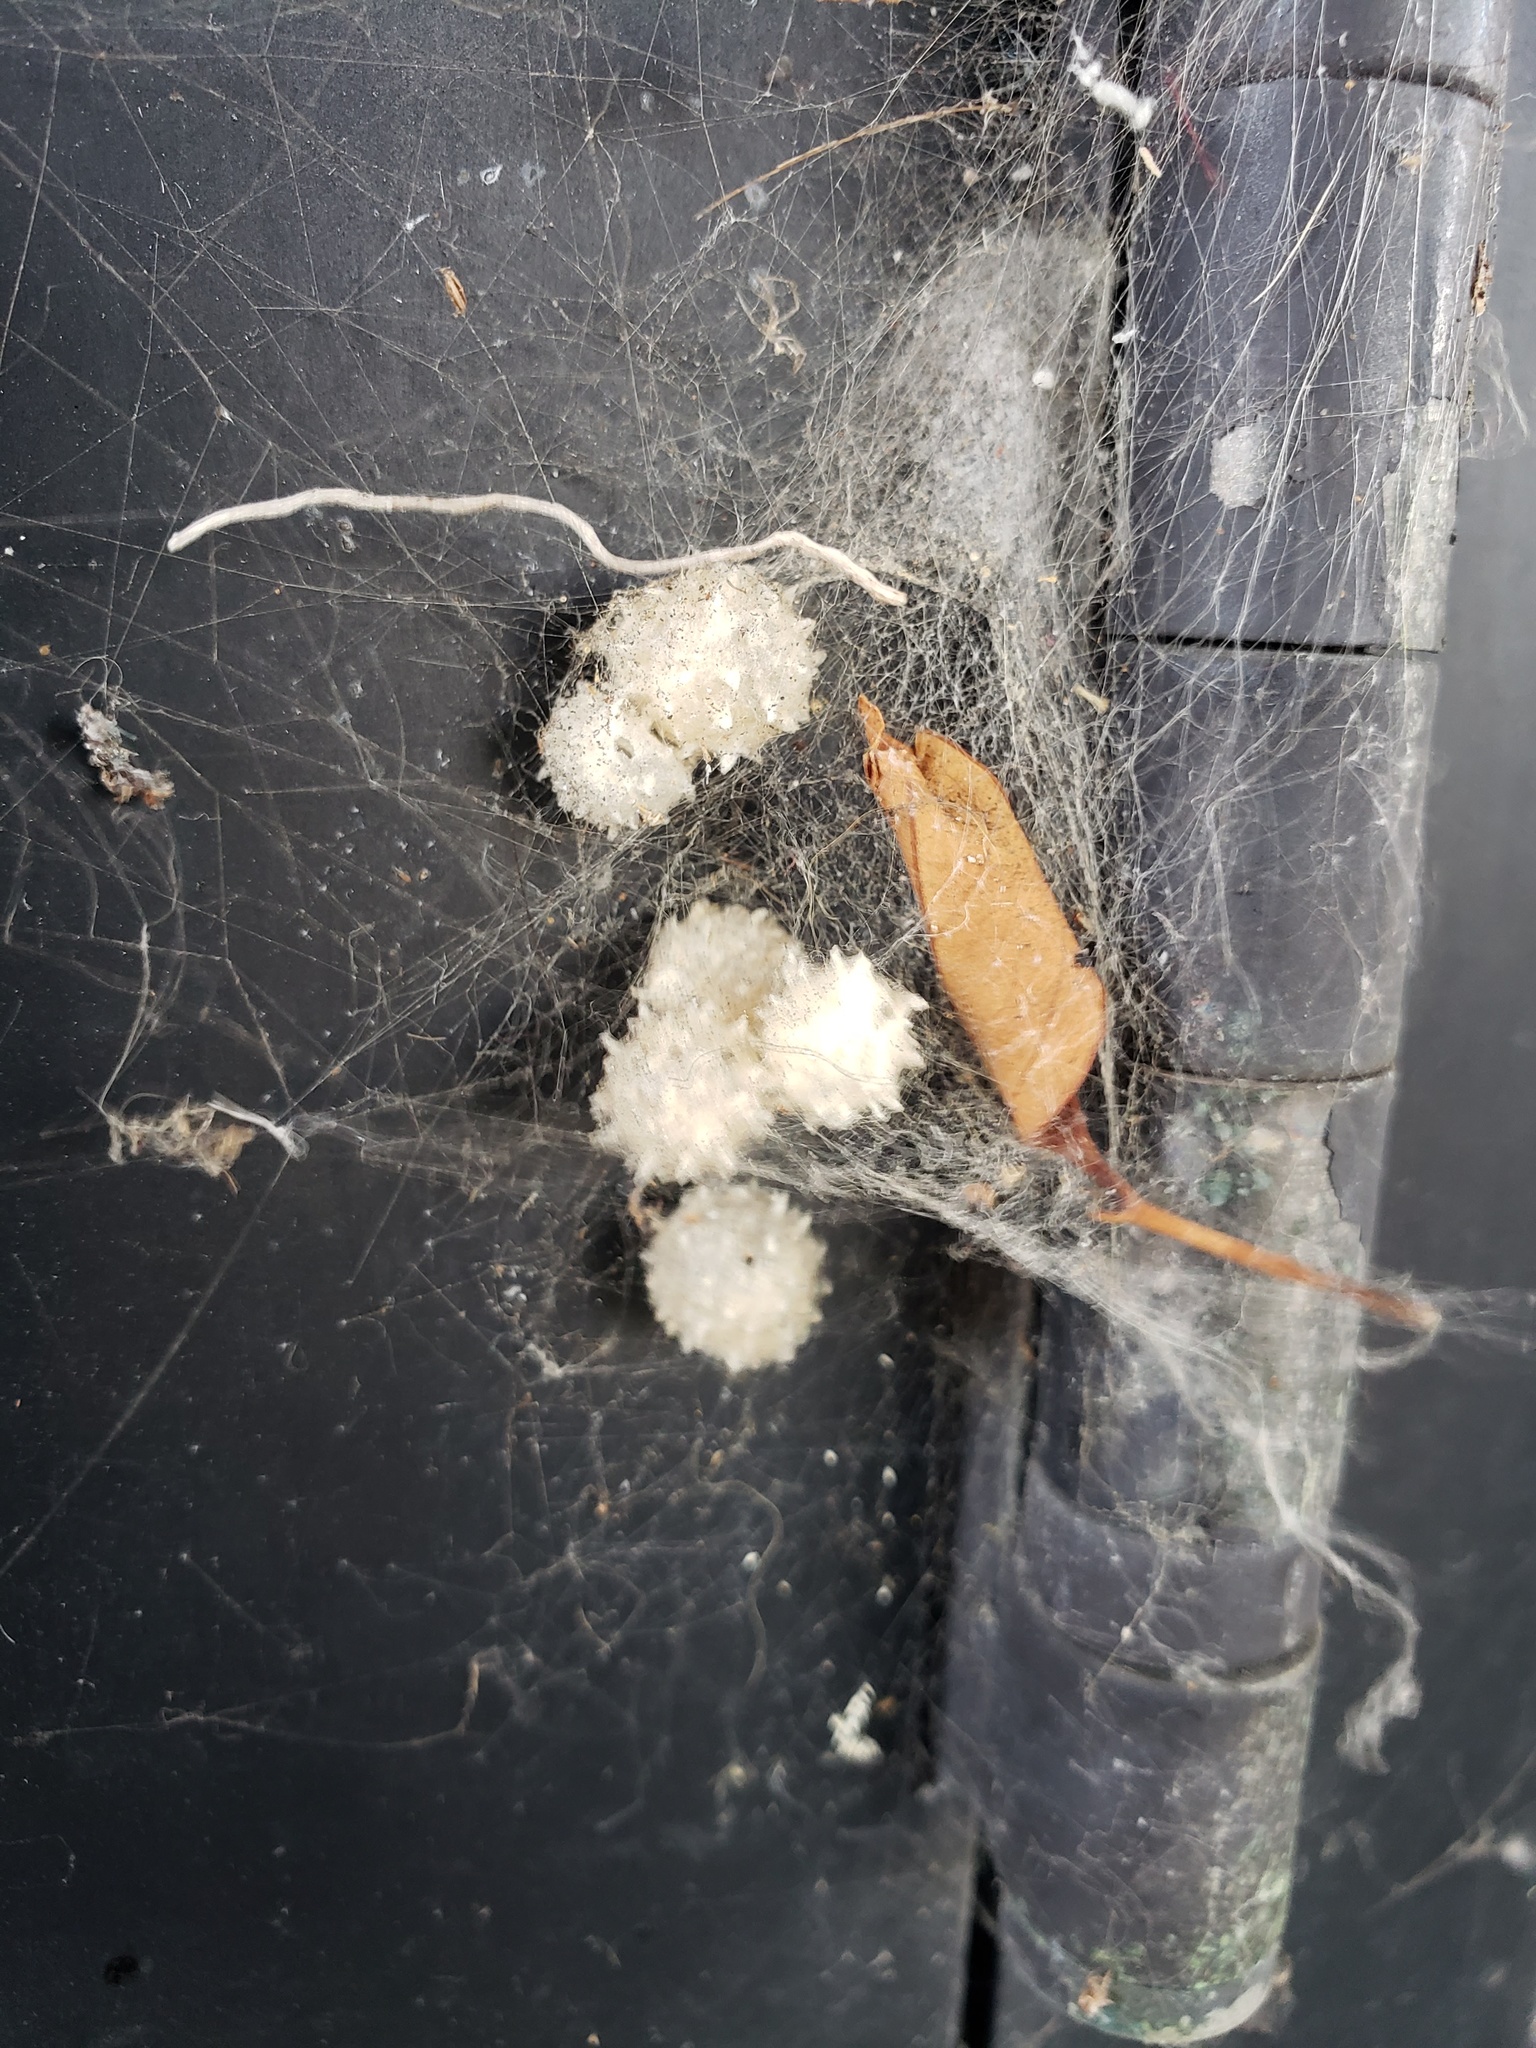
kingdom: Animalia
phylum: Arthropoda
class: Arachnida
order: Araneae
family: Theridiidae
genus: Latrodectus
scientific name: Latrodectus geometricus
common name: Brown widow spider
